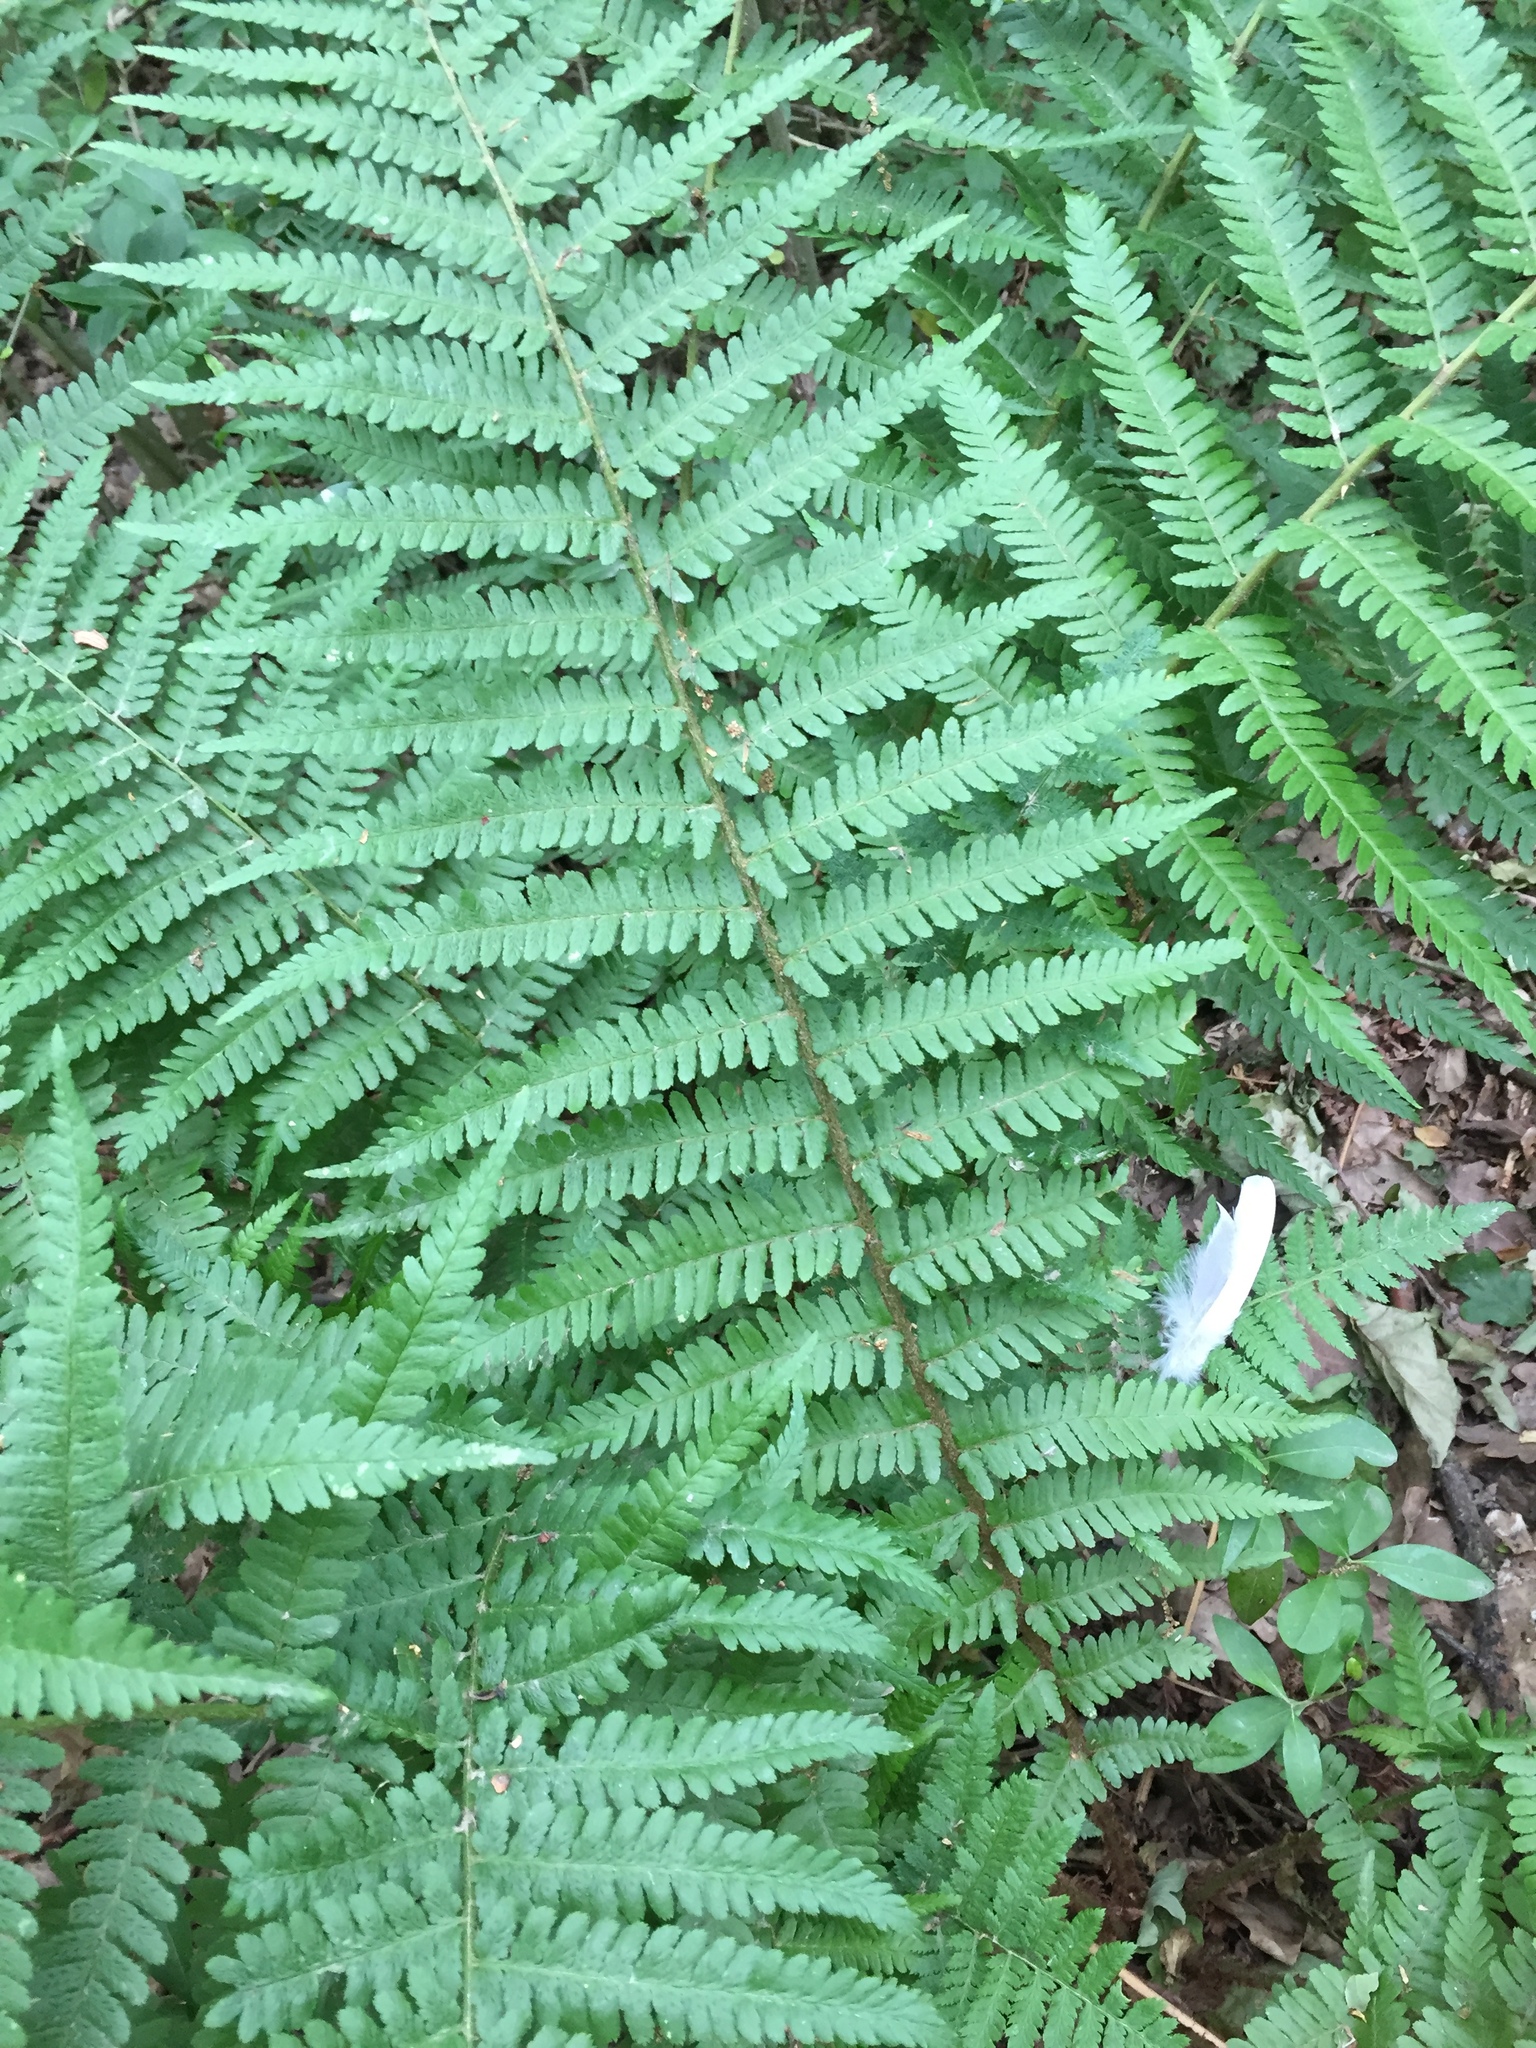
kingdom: Plantae
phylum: Tracheophyta
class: Polypodiopsida
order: Polypodiales
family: Dryopteridaceae
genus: Dryopteris
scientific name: Dryopteris filix-mas
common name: Male fern
